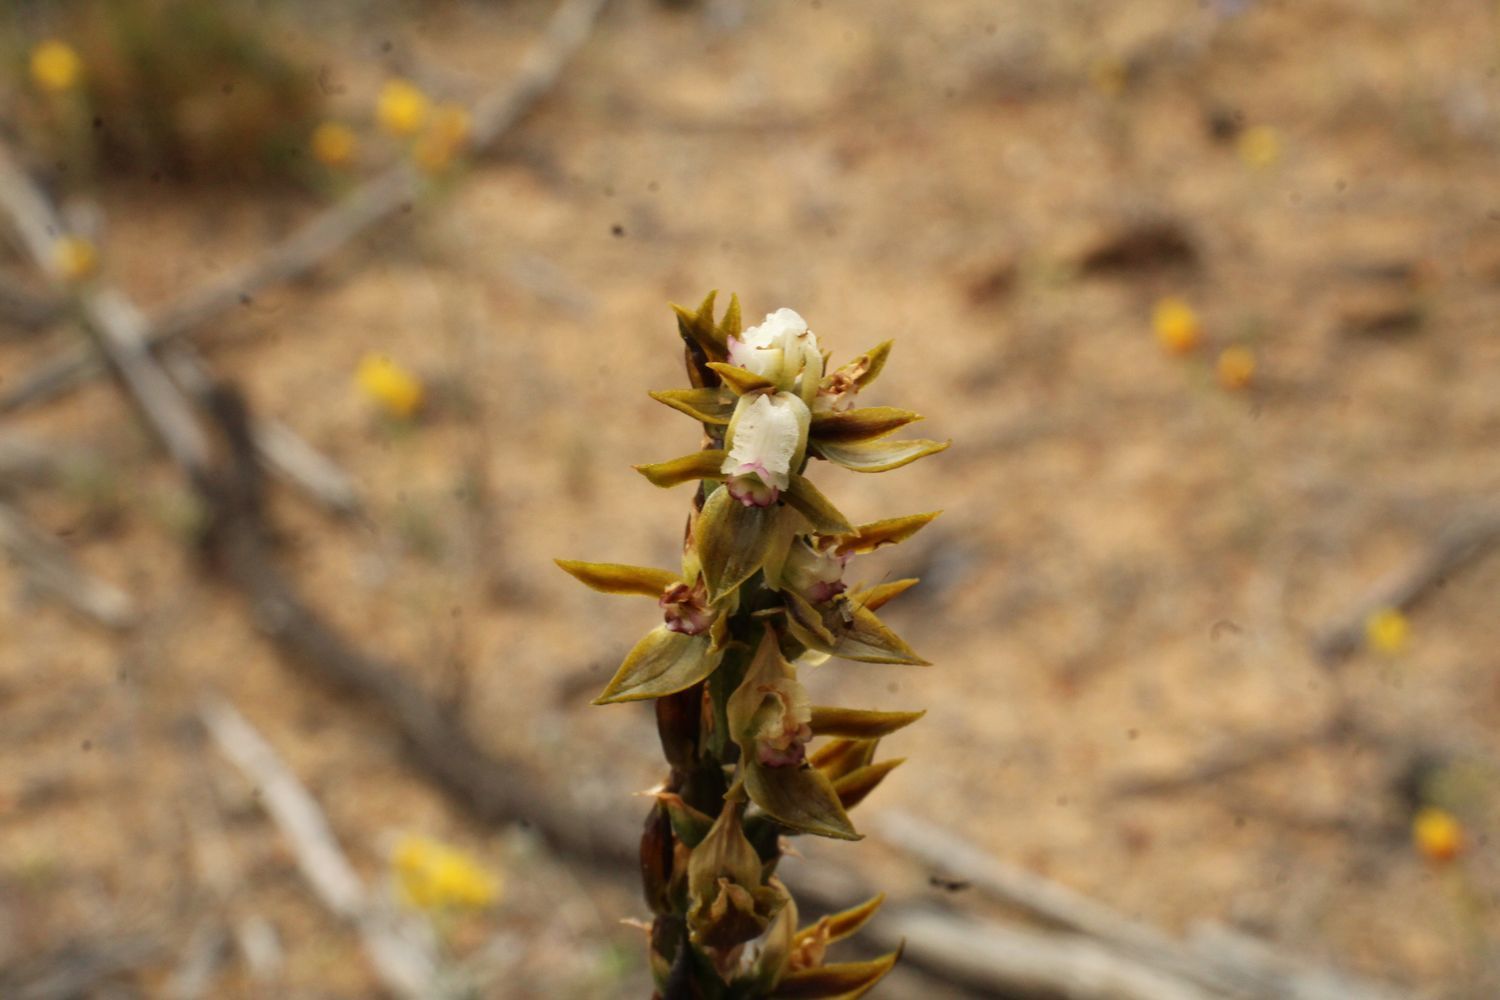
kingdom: Plantae
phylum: Tracheophyta
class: Liliopsida
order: Asparagales
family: Orchidaceae
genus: Prasophyllum
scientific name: Prasophyllum sargentii
